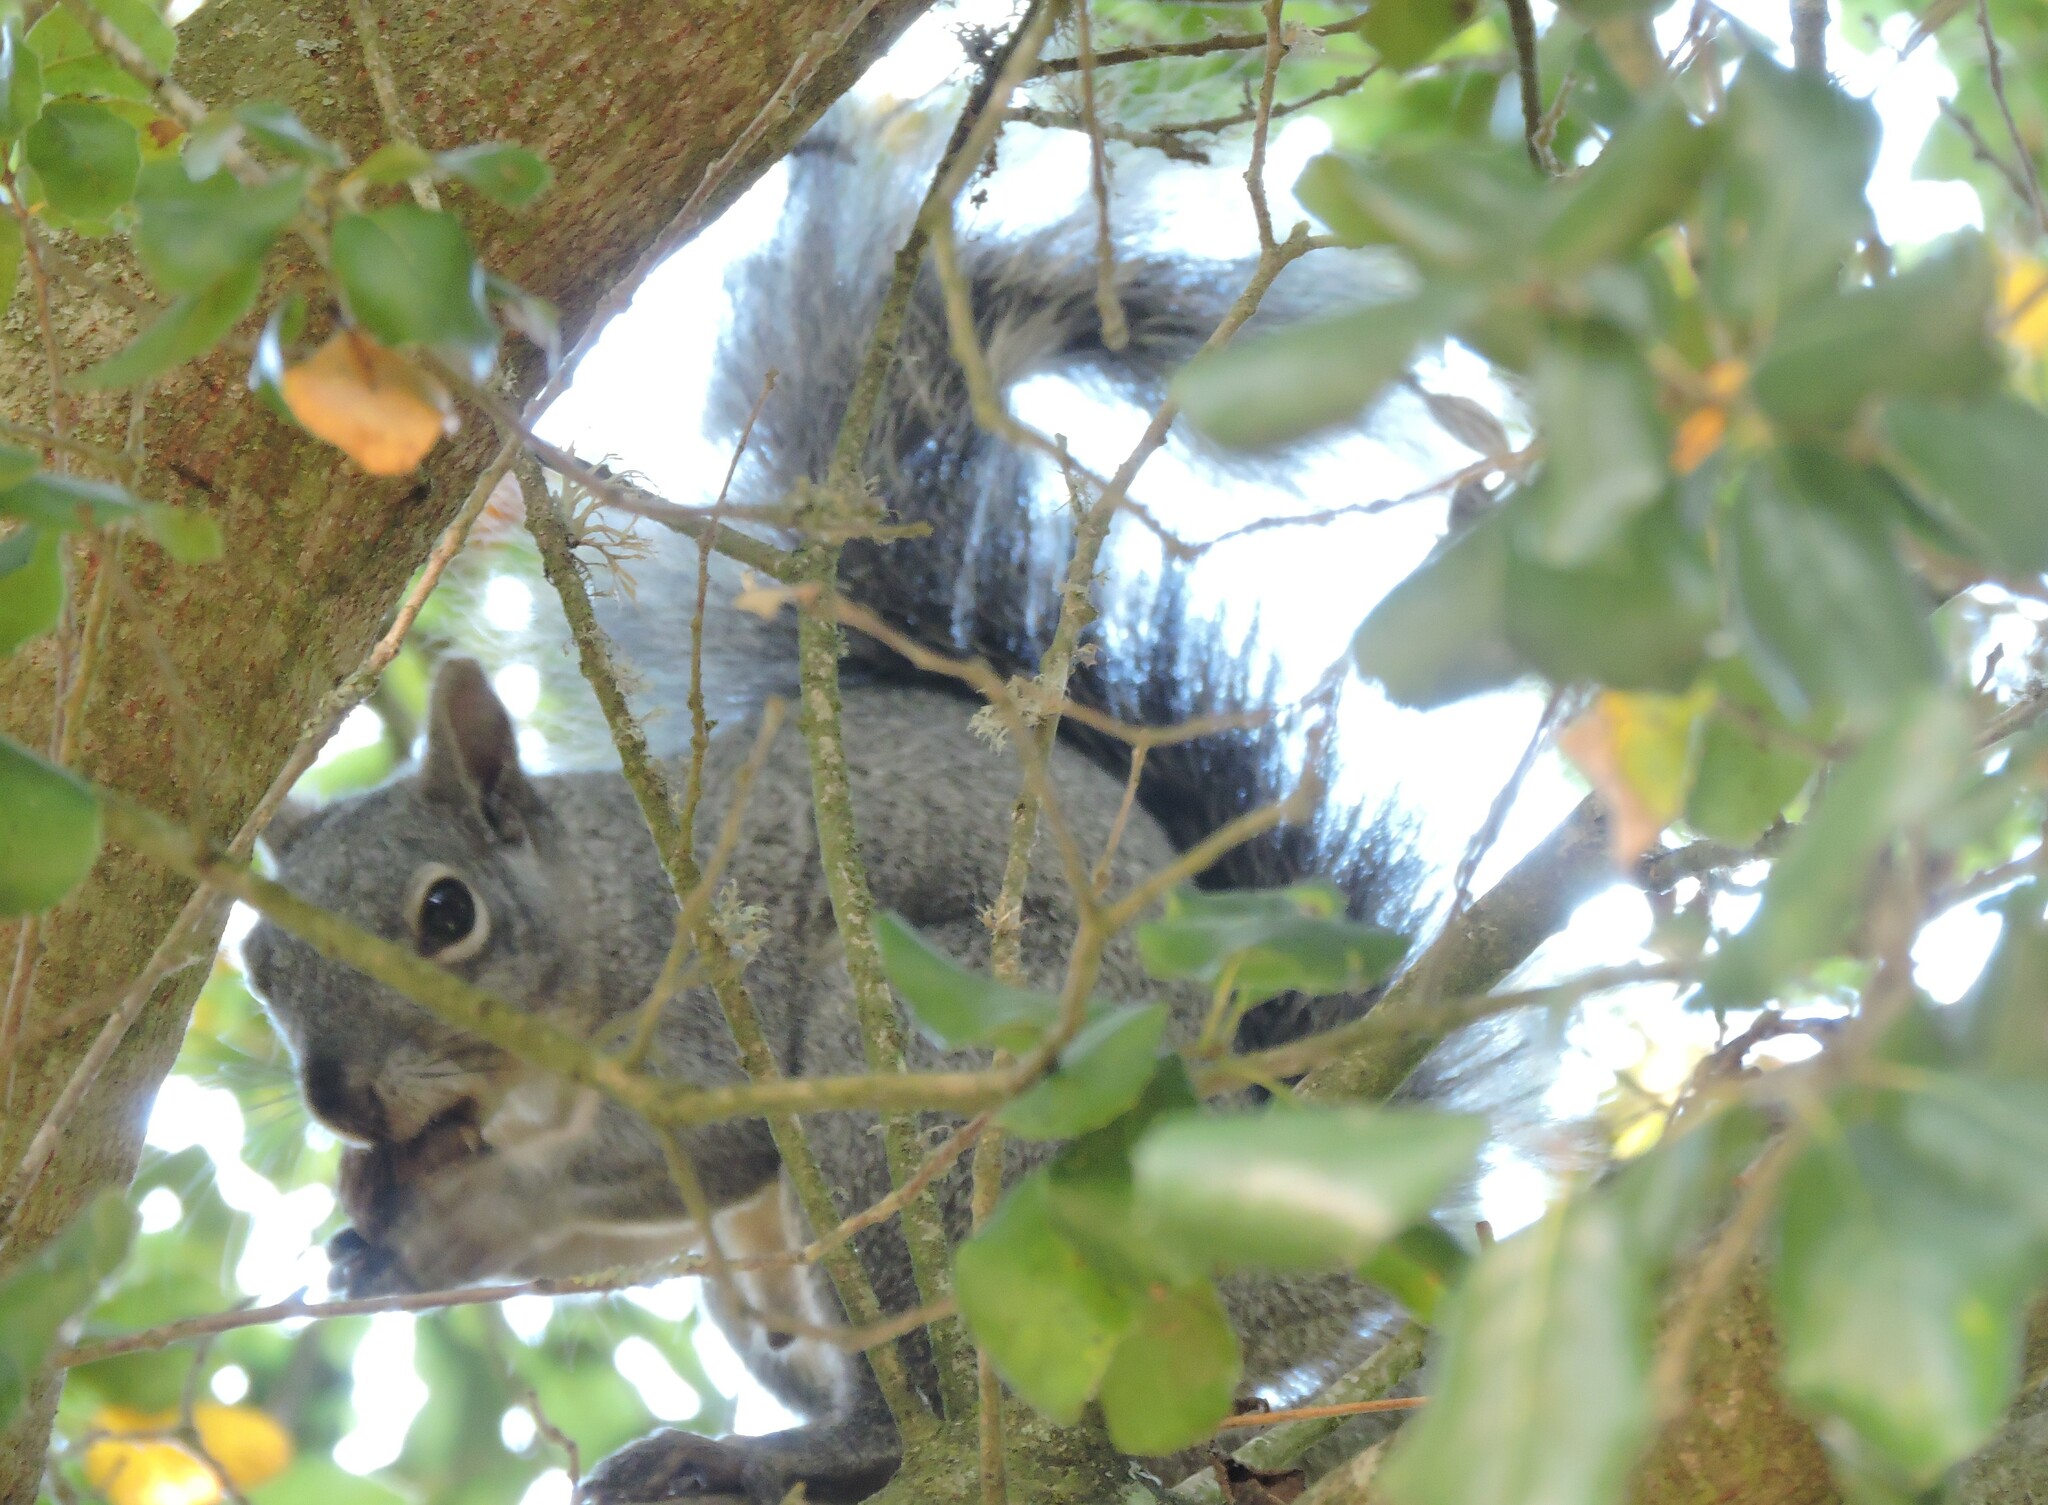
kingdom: Animalia
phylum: Chordata
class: Mammalia
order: Rodentia
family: Sciuridae
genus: Sciurus
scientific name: Sciurus griseus
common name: Western gray squirrel
